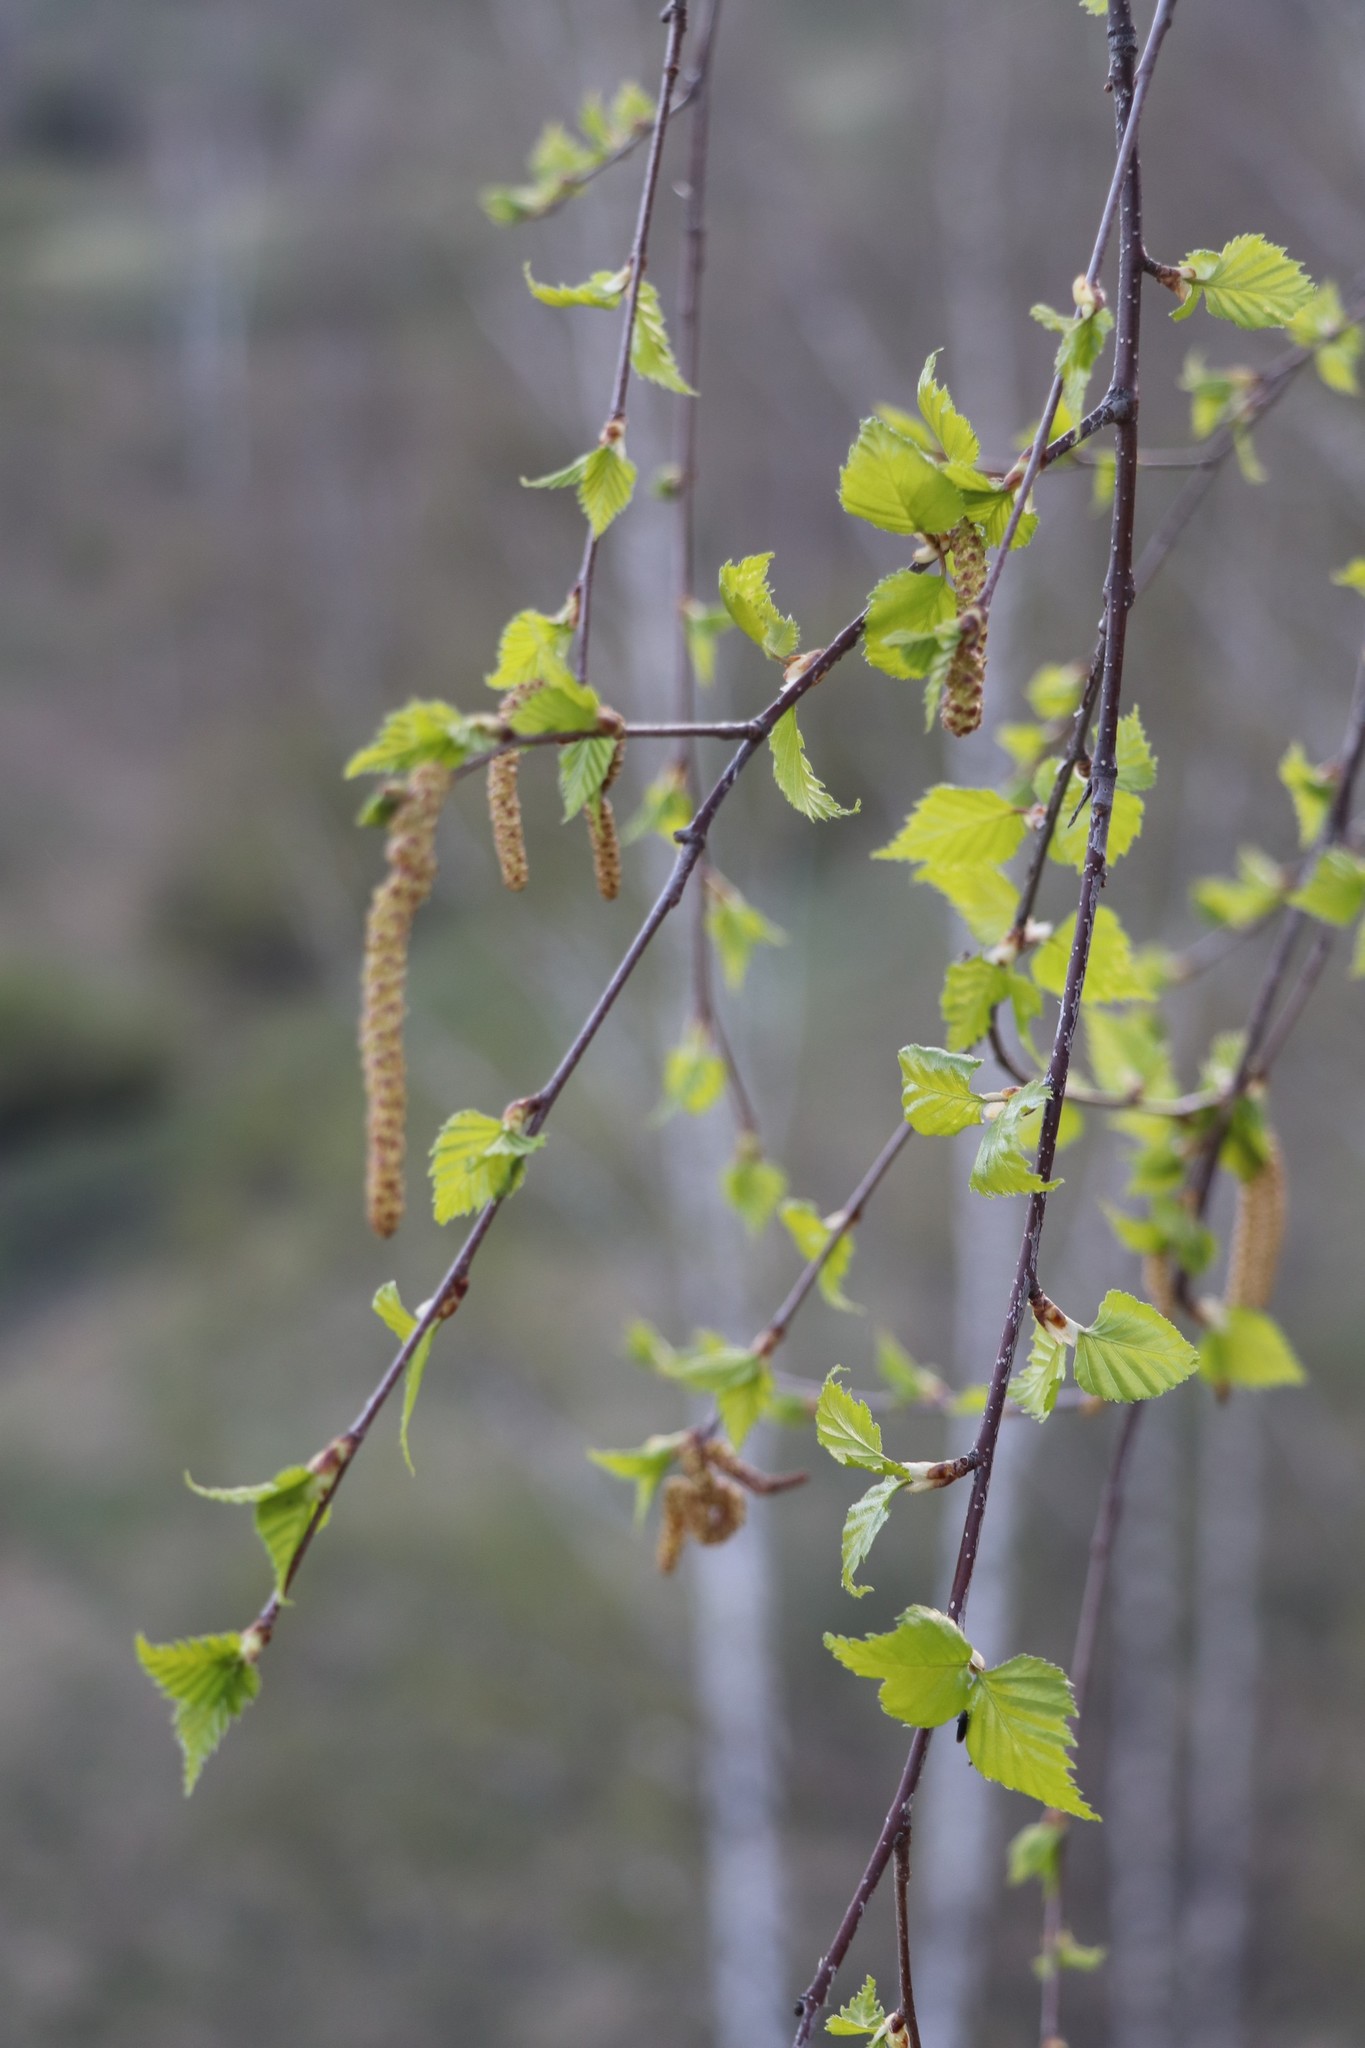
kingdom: Plantae
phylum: Tracheophyta
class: Magnoliopsida
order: Fagales
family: Betulaceae
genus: Betula
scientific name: Betula pendula
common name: Silver birch
